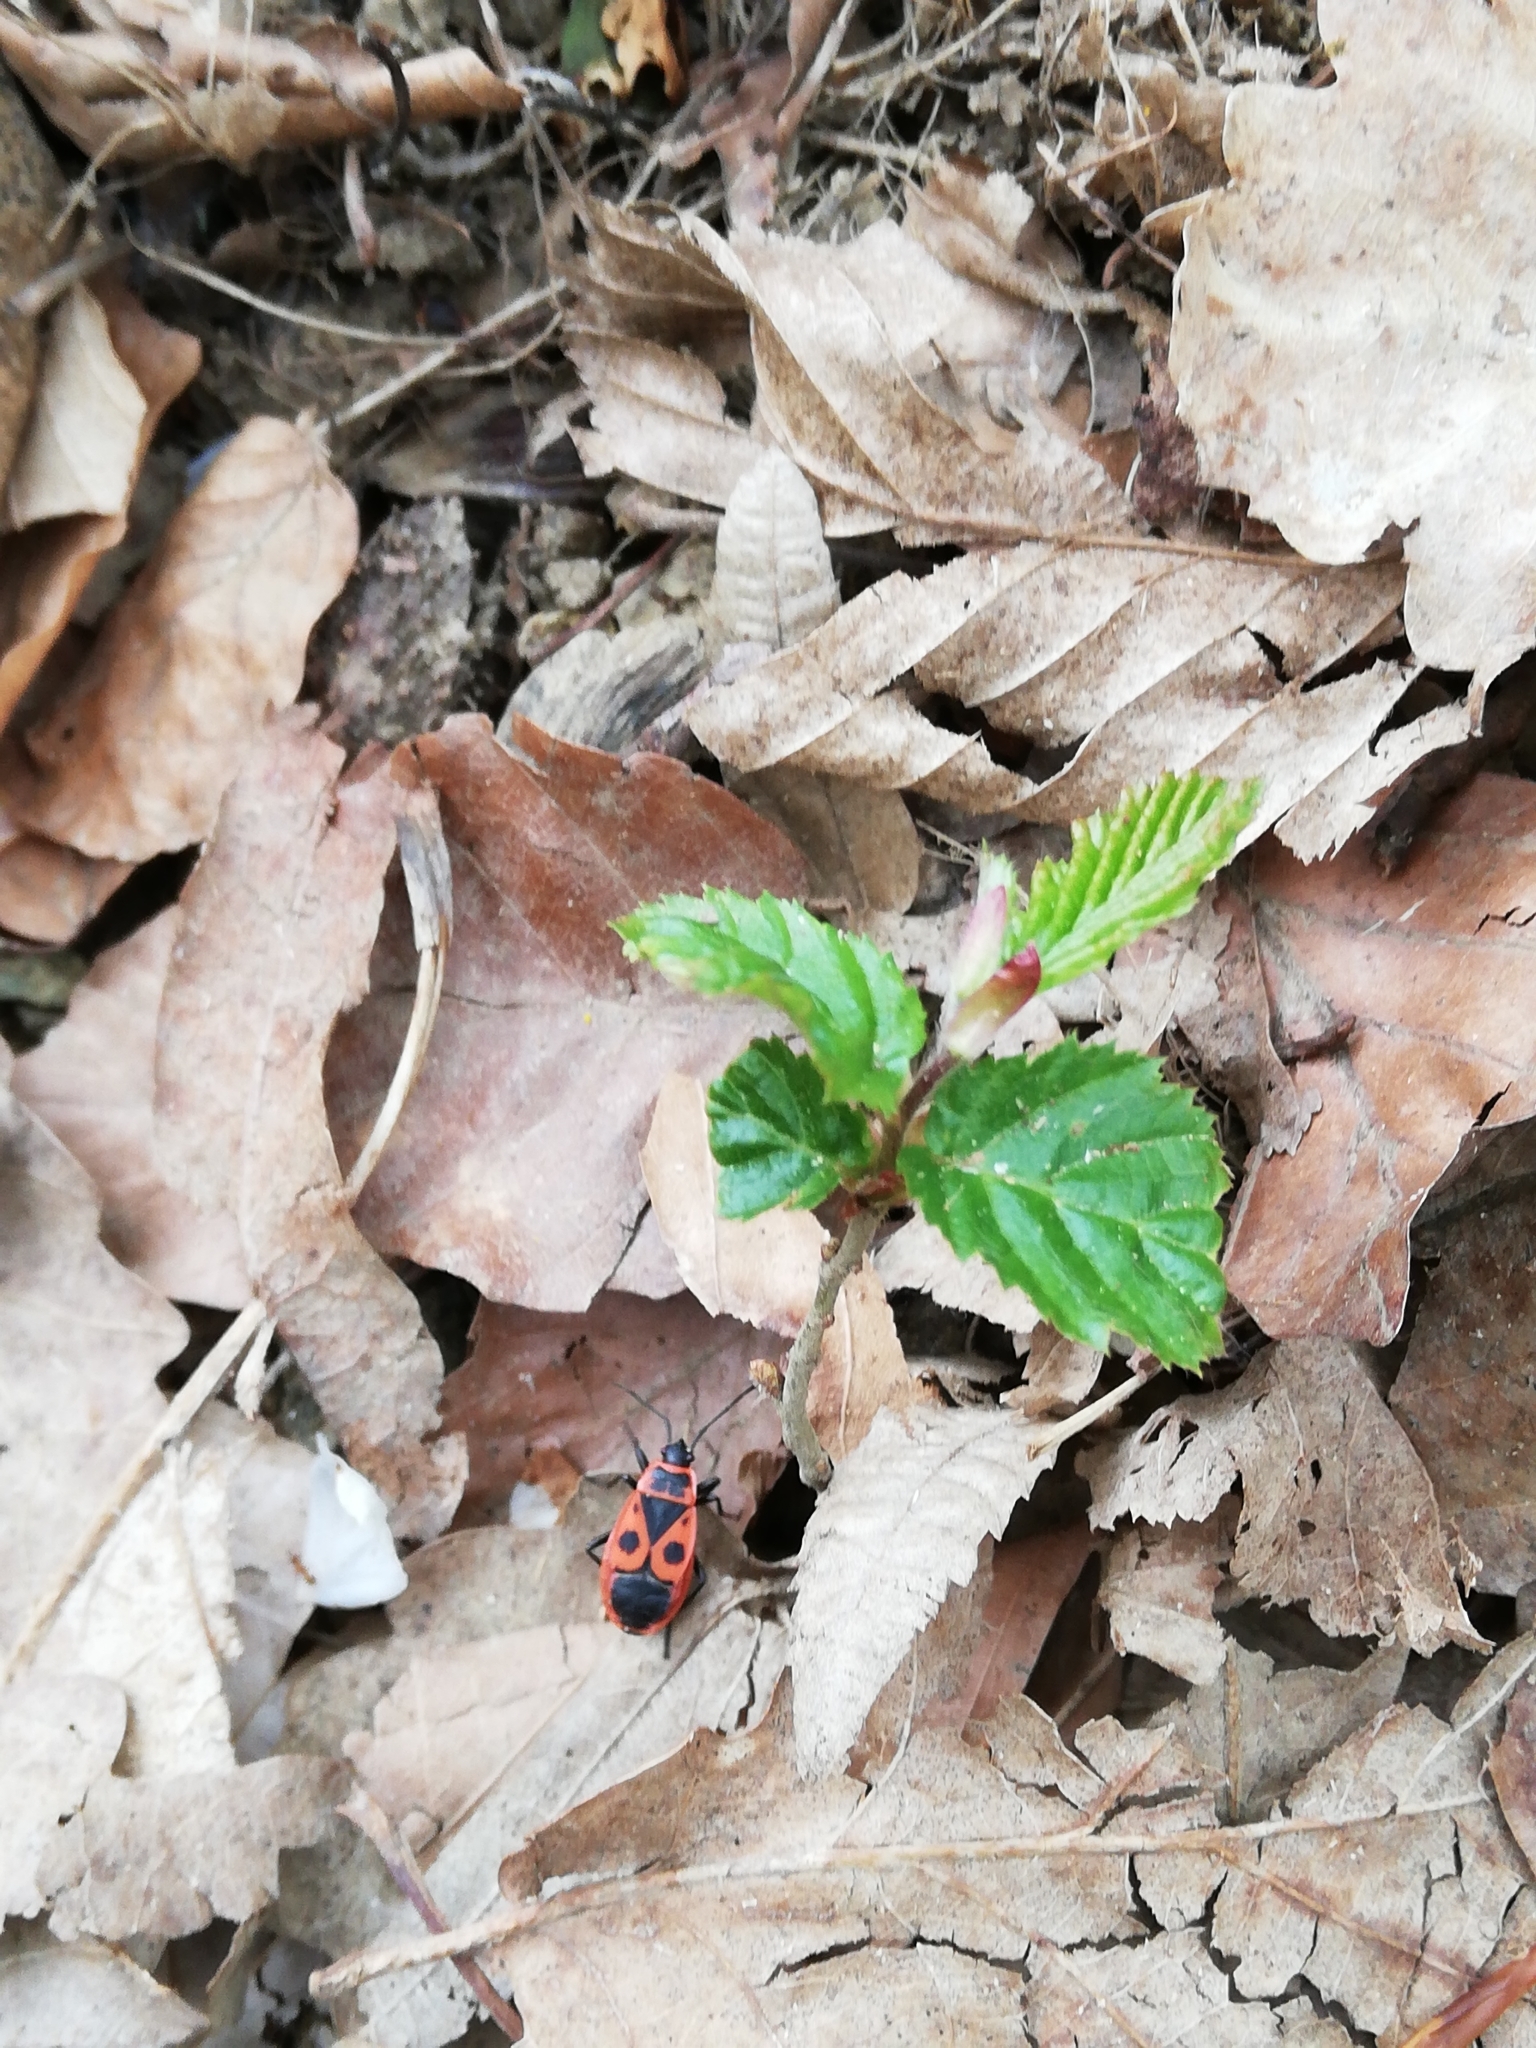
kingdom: Animalia
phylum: Arthropoda
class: Insecta
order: Hemiptera
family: Pyrrhocoridae
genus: Pyrrhocoris
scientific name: Pyrrhocoris apterus
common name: Firebug
